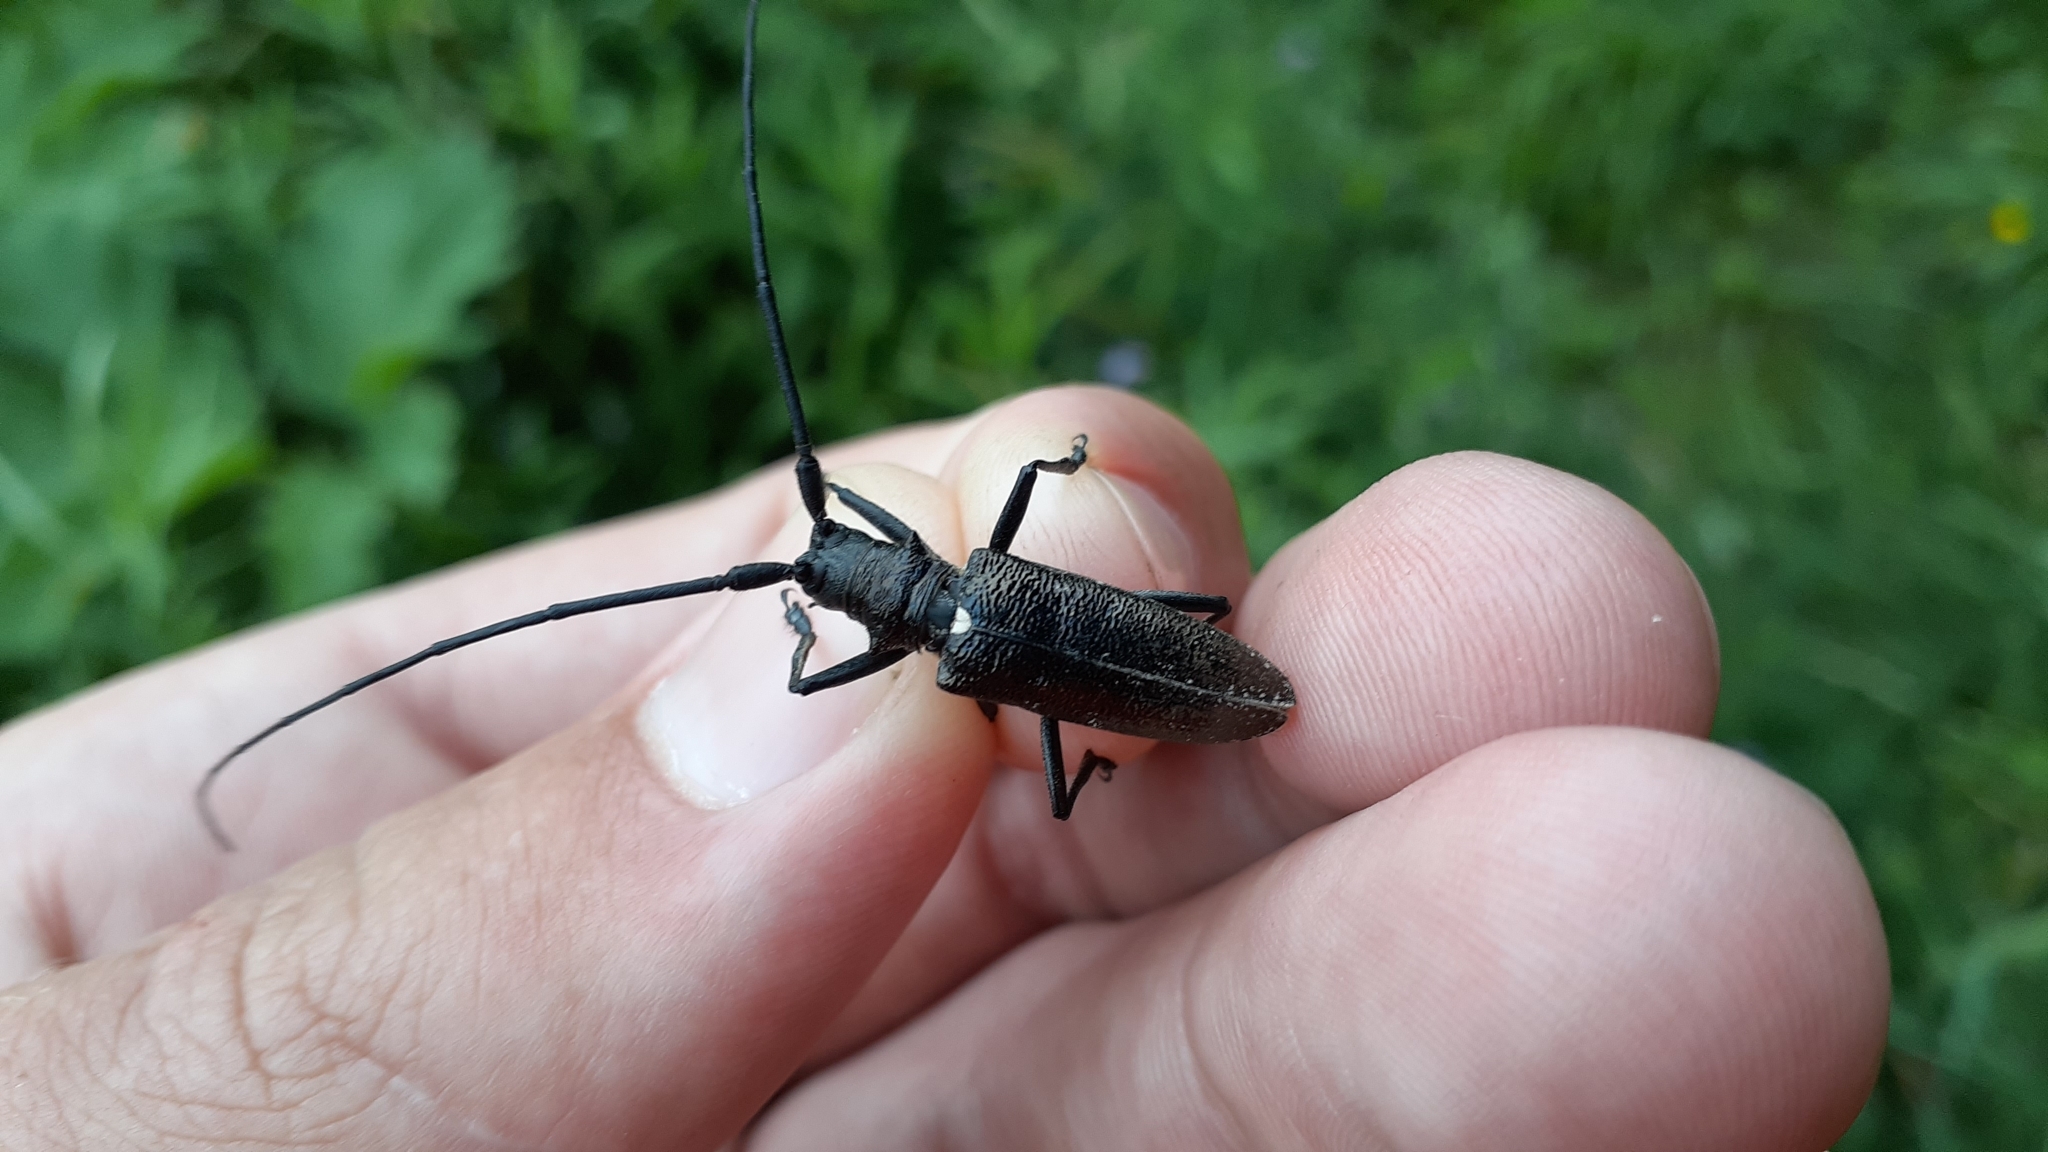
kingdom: Animalia
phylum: Arthropoda
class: Insecta
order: Coleoptera
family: Cerambycidae
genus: Monochamus
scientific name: Monochamus scutellatus
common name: White-spotted sawyer beetle
